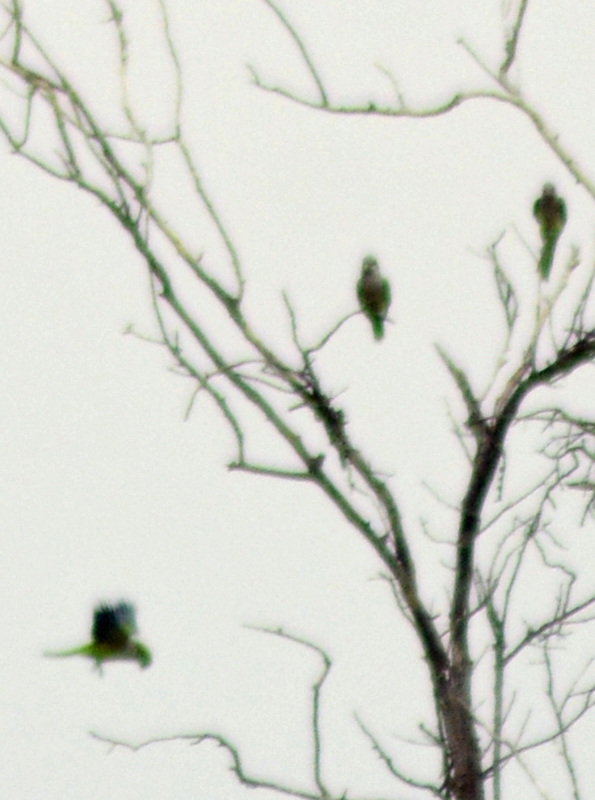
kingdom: Animalia
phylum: Chordata
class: Aves
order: Psittaciformes
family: Psittacidae
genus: Myiopsitta
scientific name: Myiopsitta monachus
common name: Monk parakeet
